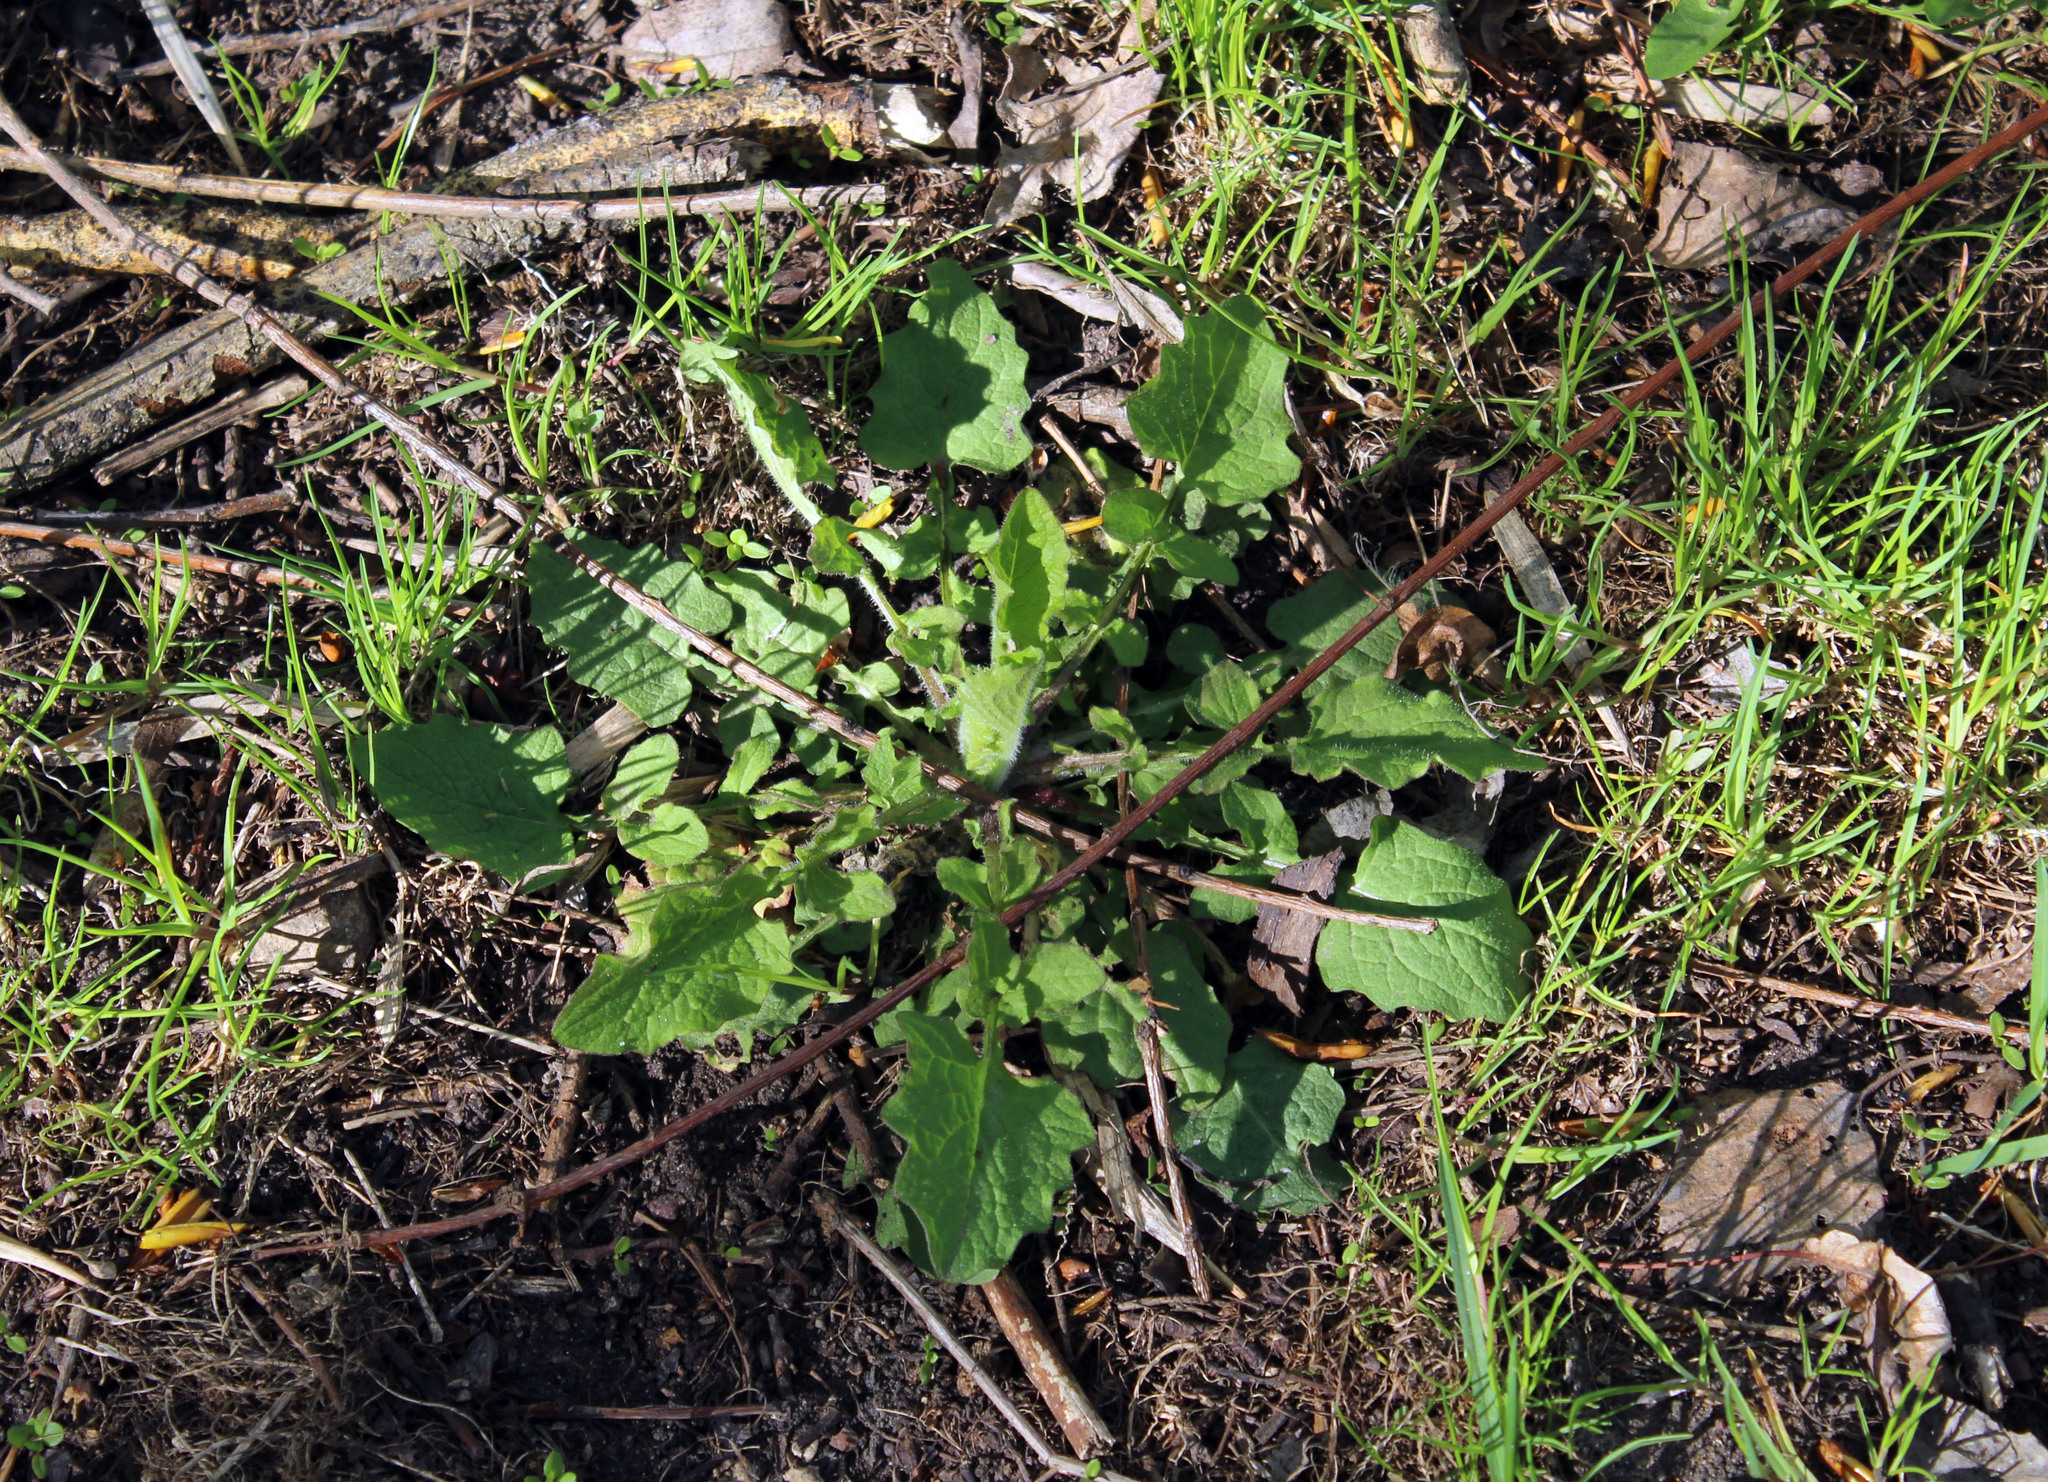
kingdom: Plantae
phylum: Tracheophyta
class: Magnoliopsida
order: Asterales
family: Asteraceae
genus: Lapsana
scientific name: Lapsana communis
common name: Nipplewort
